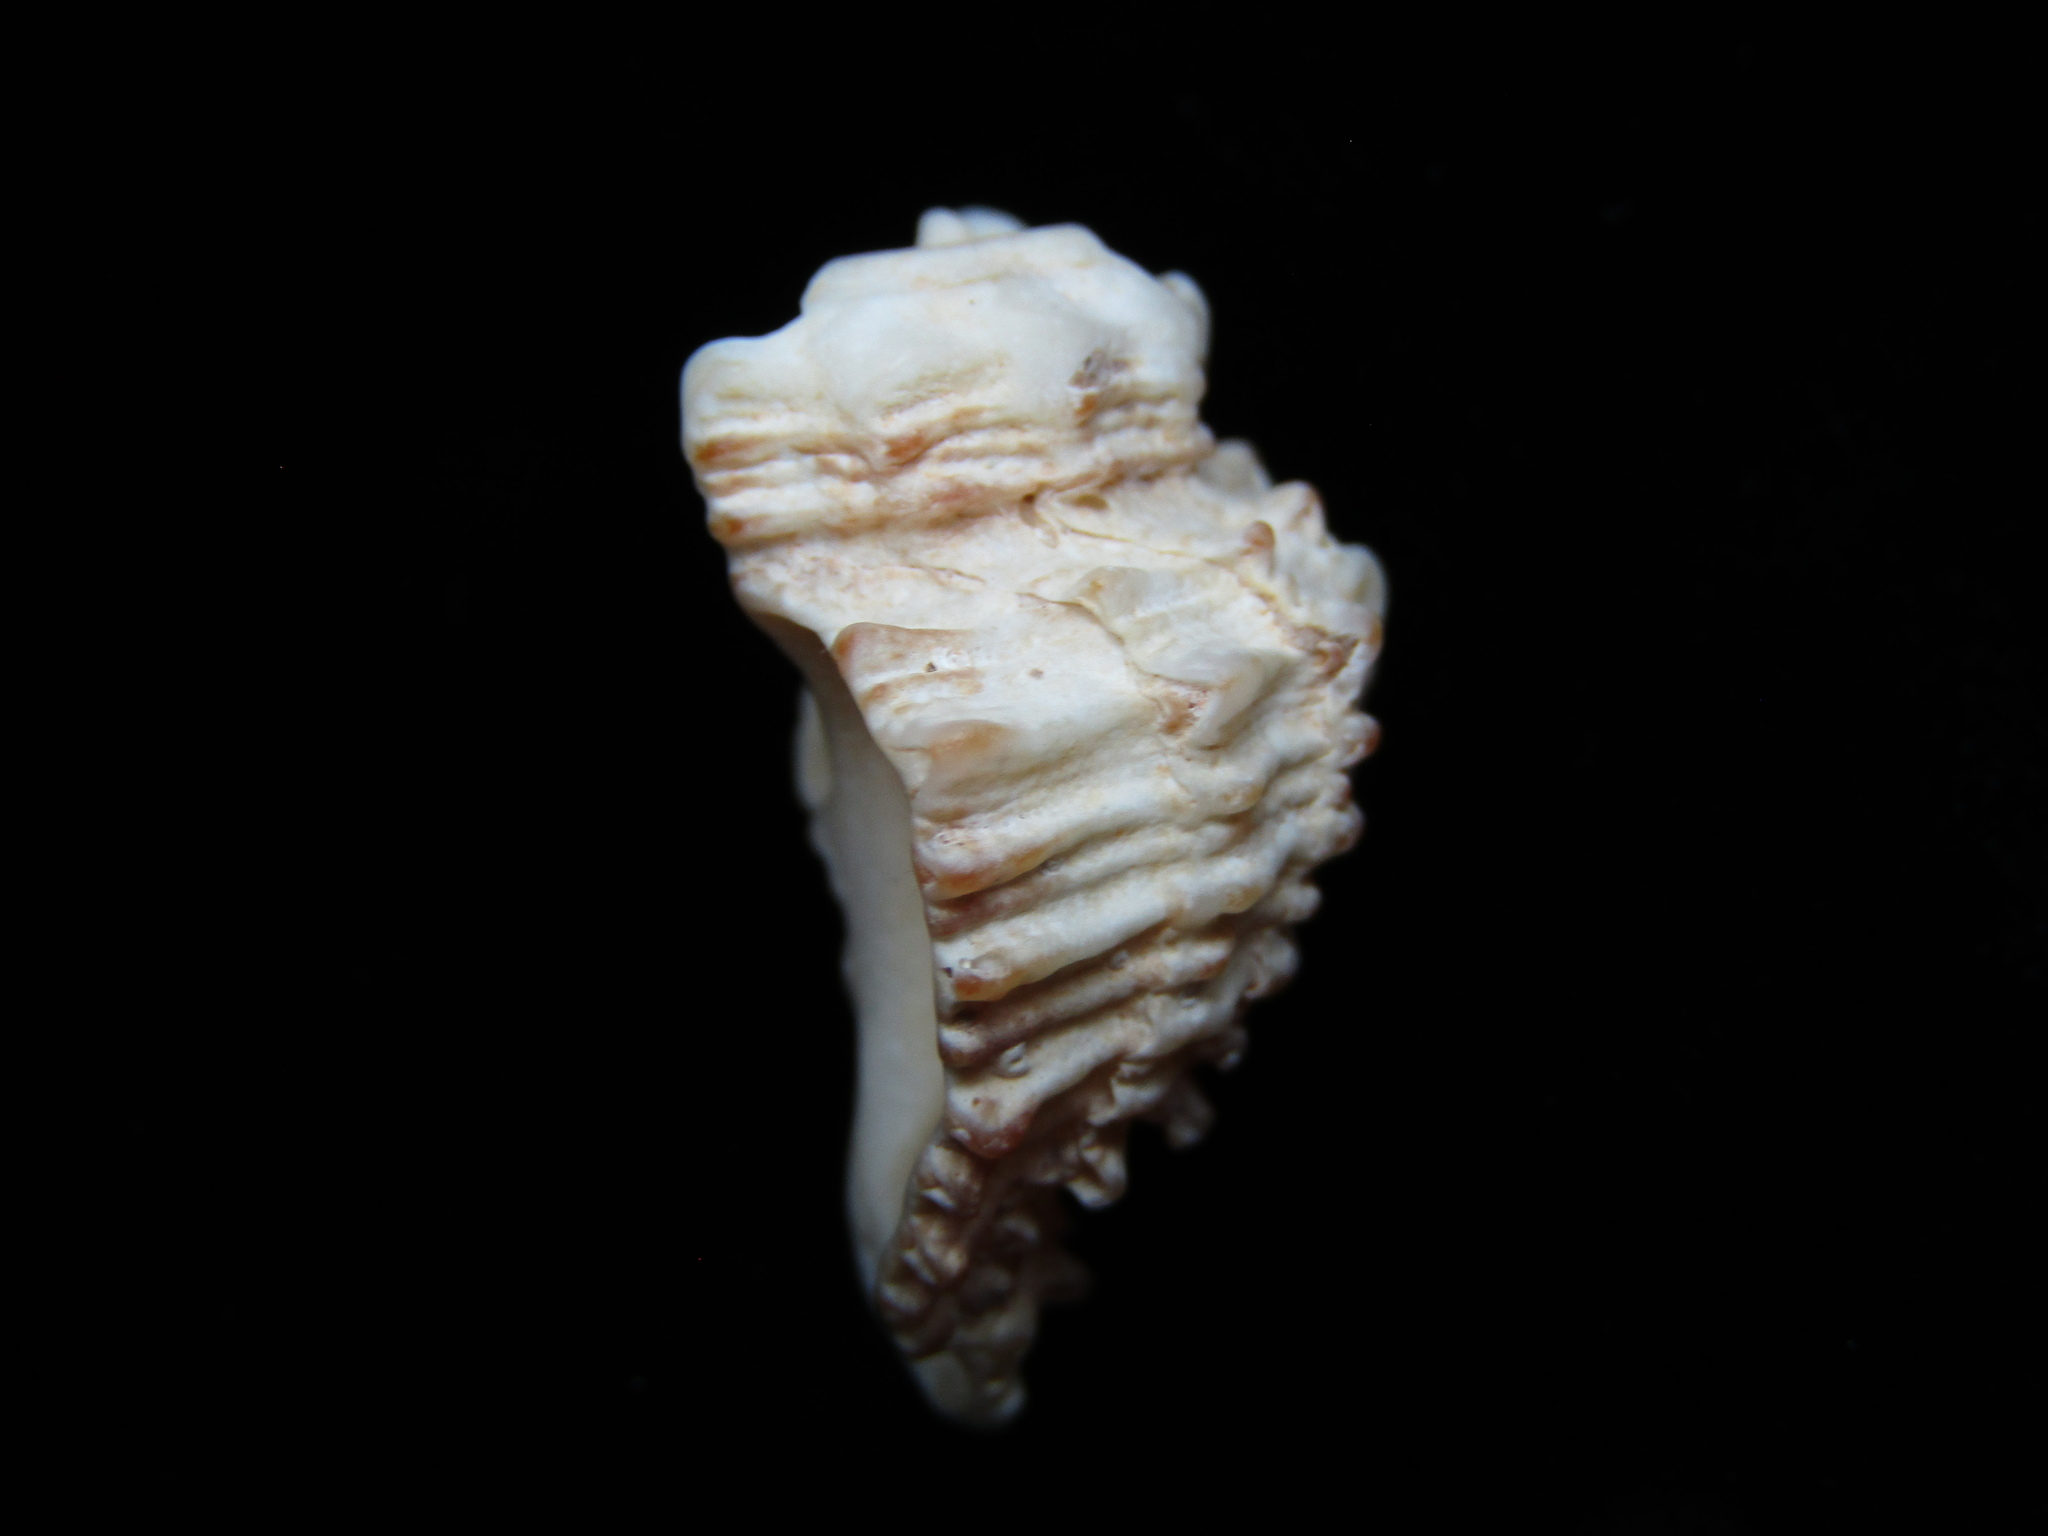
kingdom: Animalia
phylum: Mollusca
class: Gastropoda
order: Neogastropoda
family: Muricidae
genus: Rolandiella
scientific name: Rolandiella scotti
